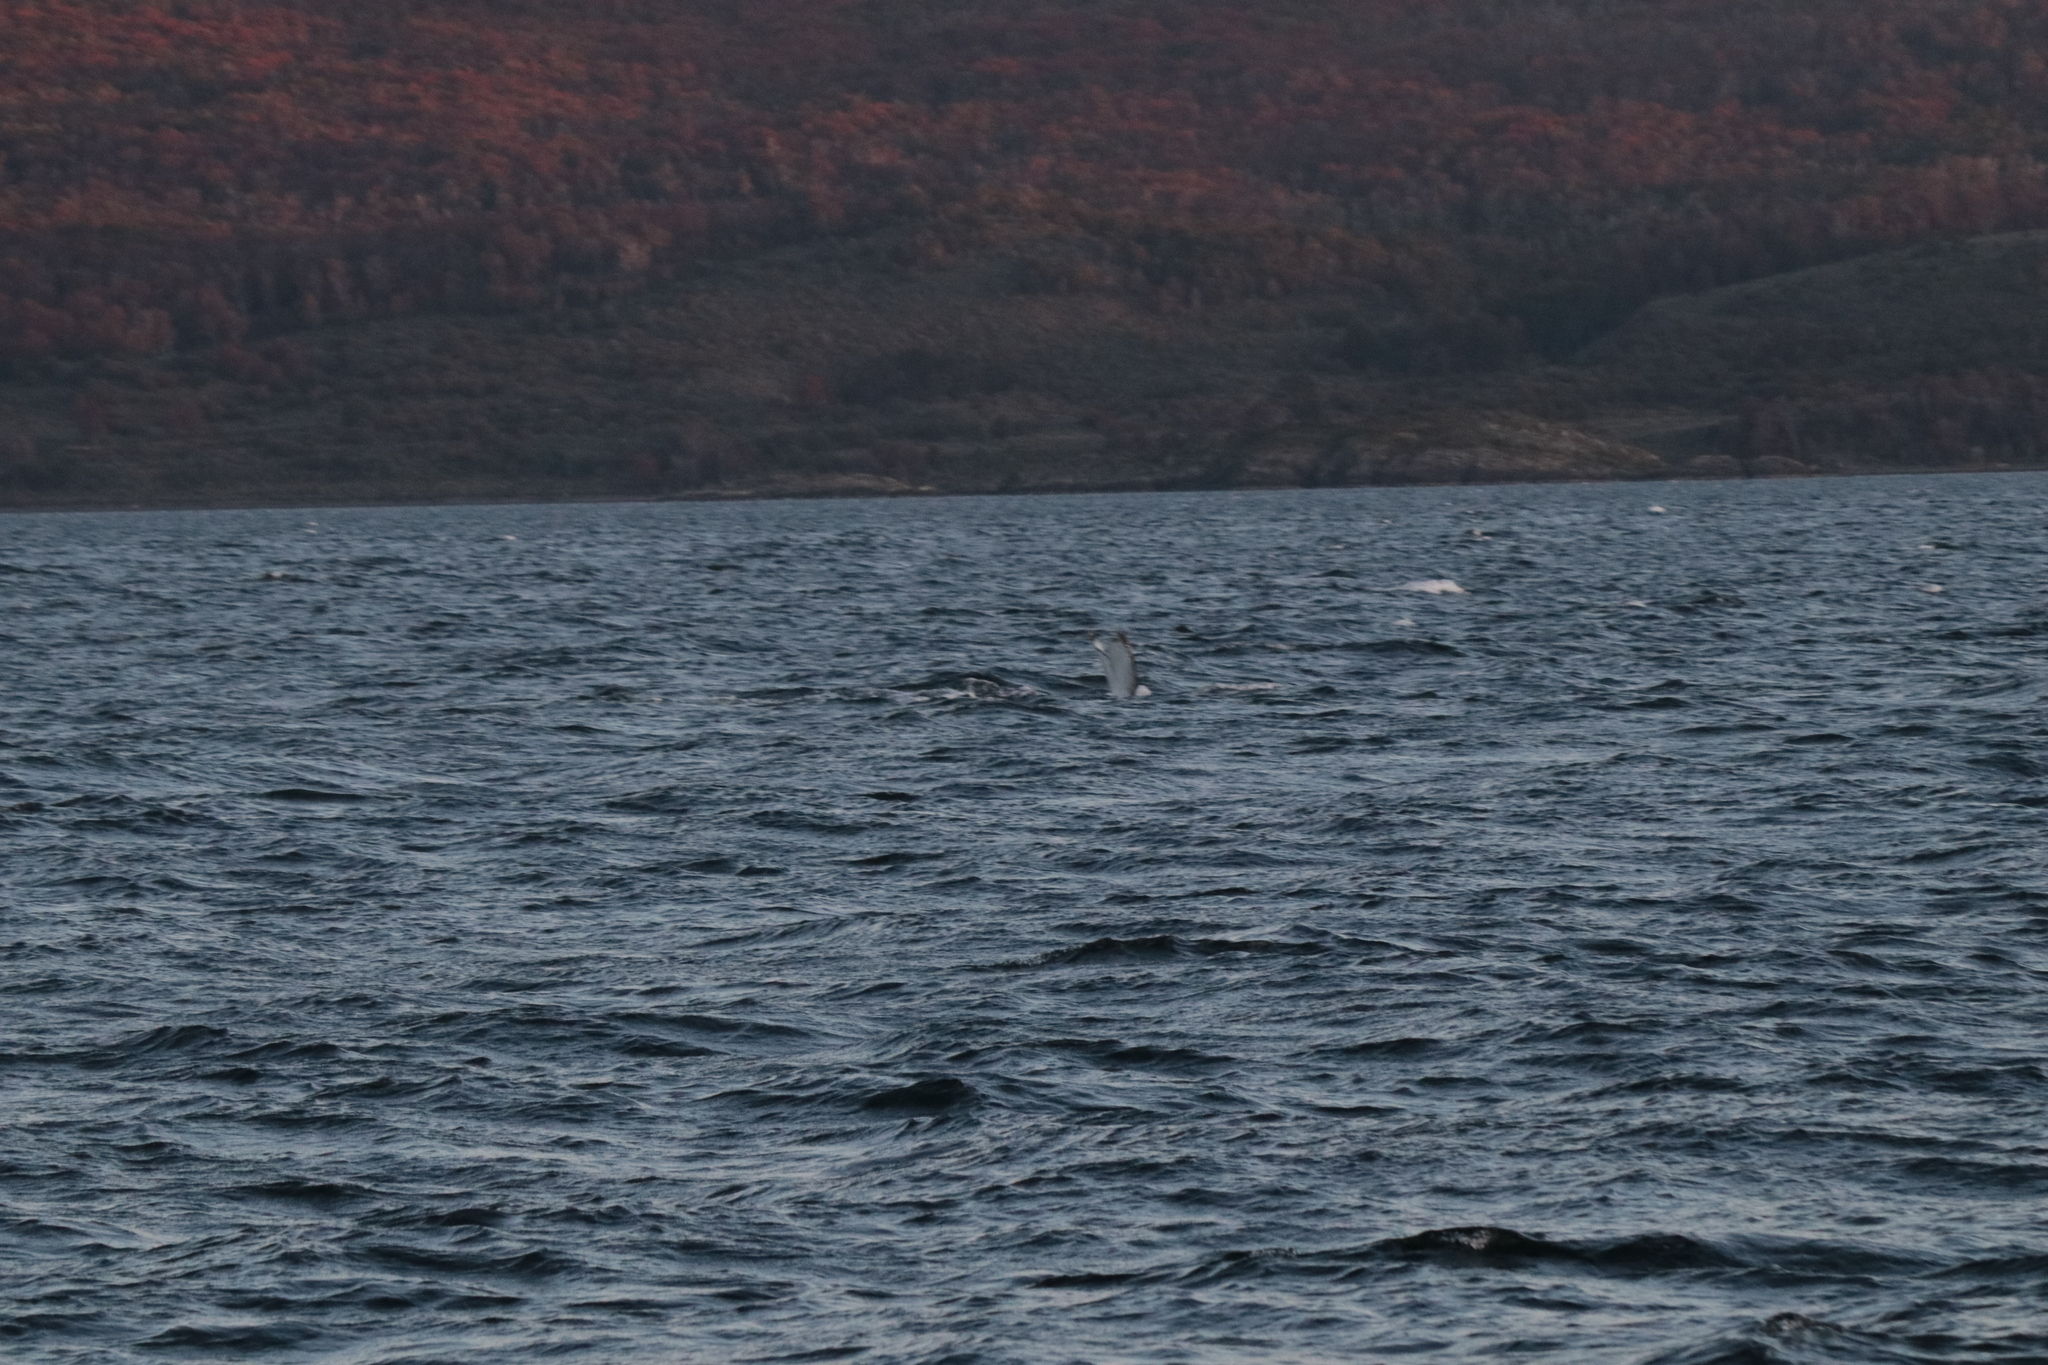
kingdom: Animalia
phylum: Chordata
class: Mammalia
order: Cetacea
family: Balaenopteridae
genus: Megaptera
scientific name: Megaptera novaeangliae
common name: Humpback whale
